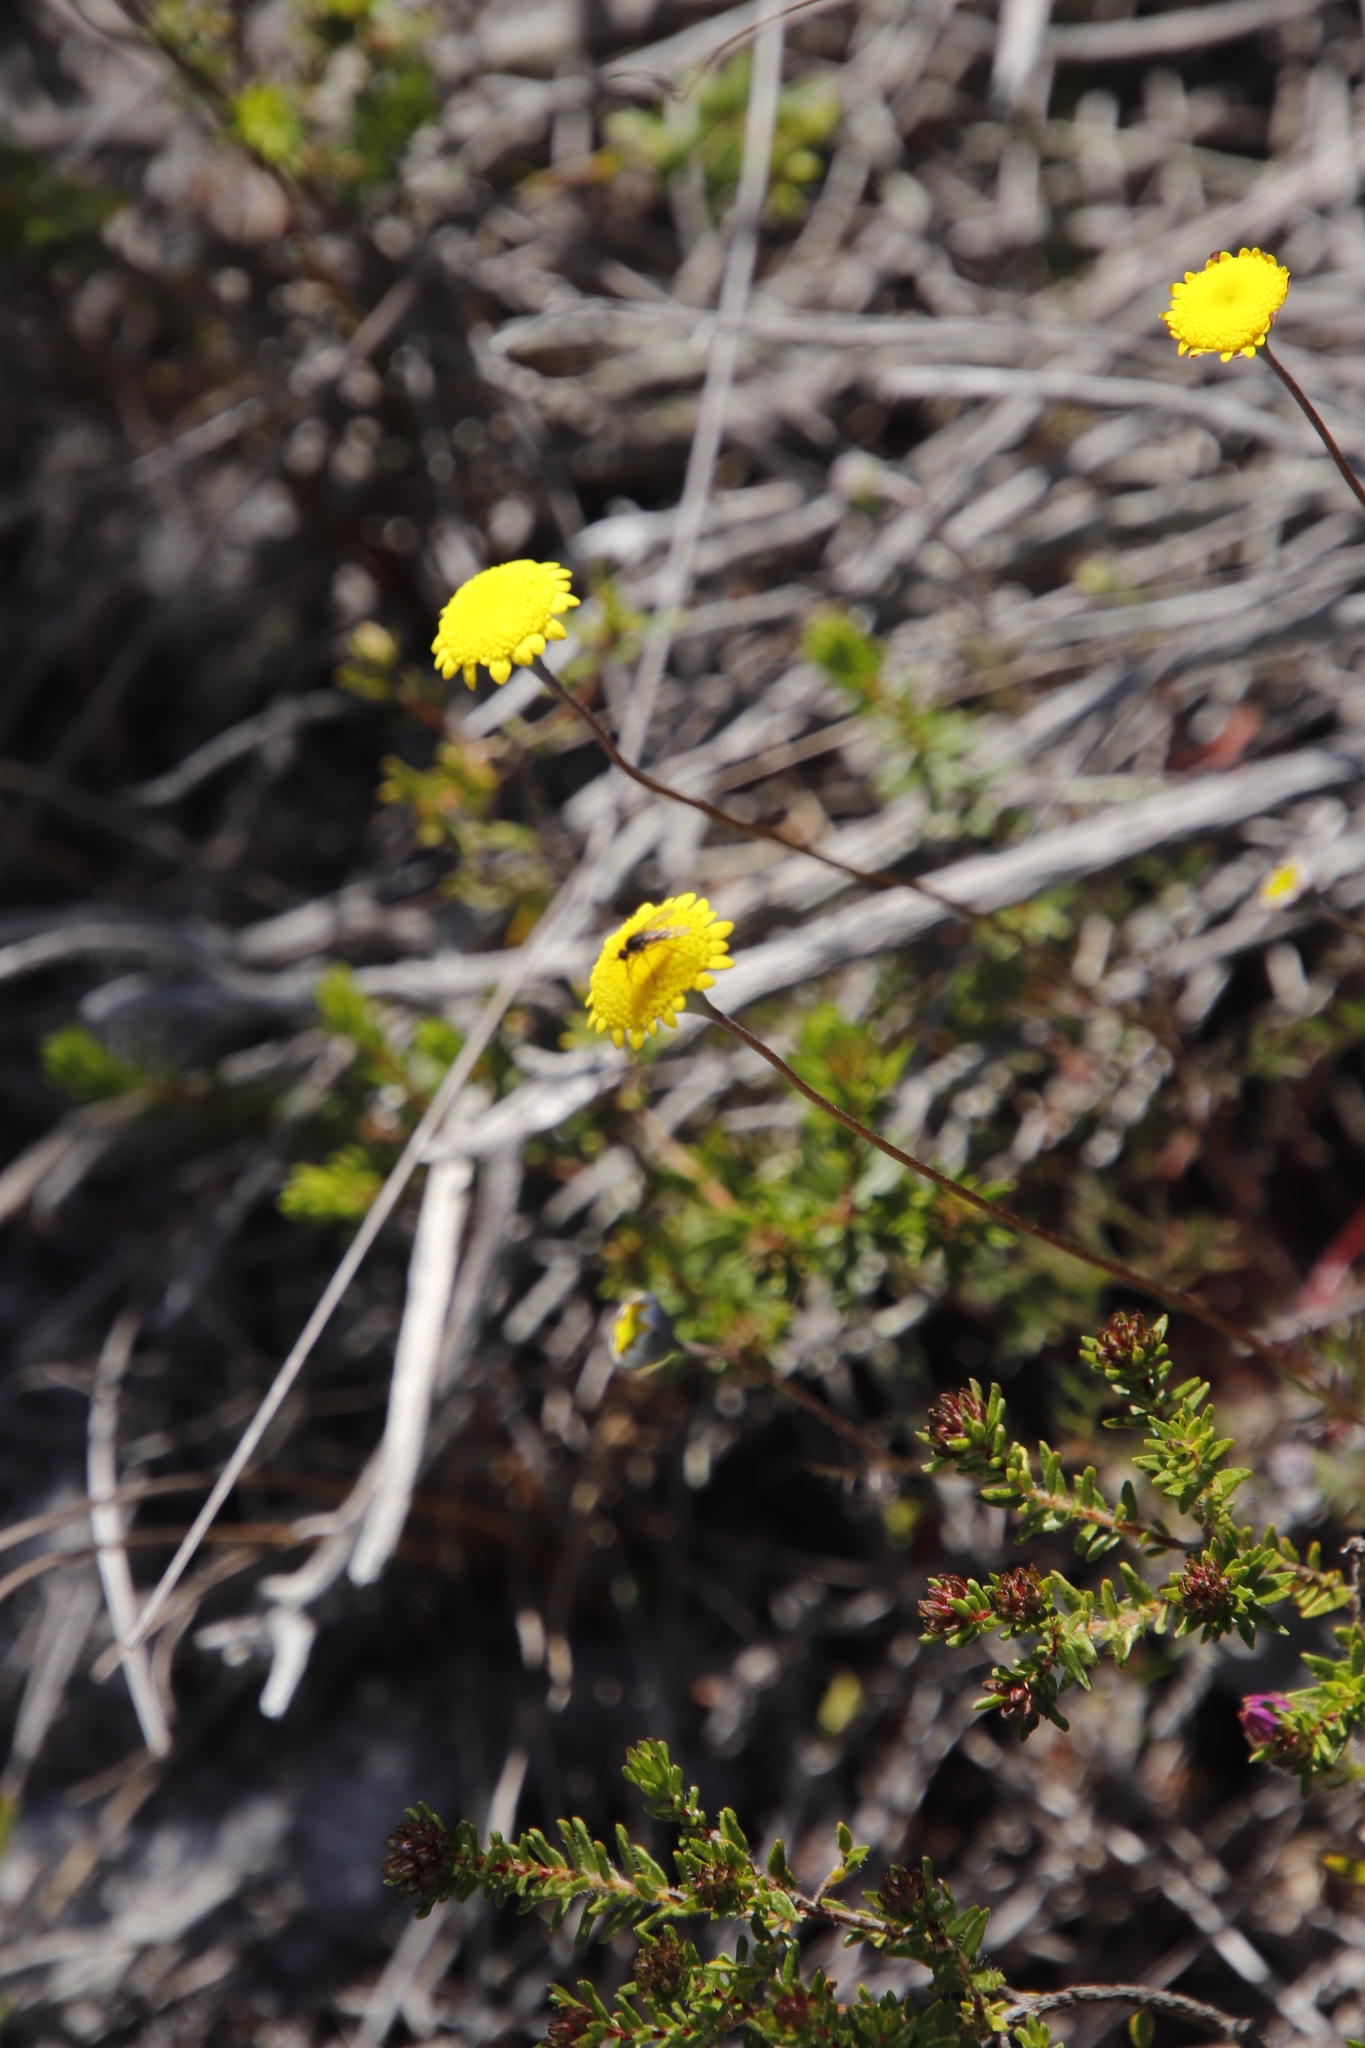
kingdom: Plantae
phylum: Tracheophyta
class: Magnoliopsida
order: Asterales
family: Asteraceae
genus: Cotula
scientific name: Cotula pruinosa
